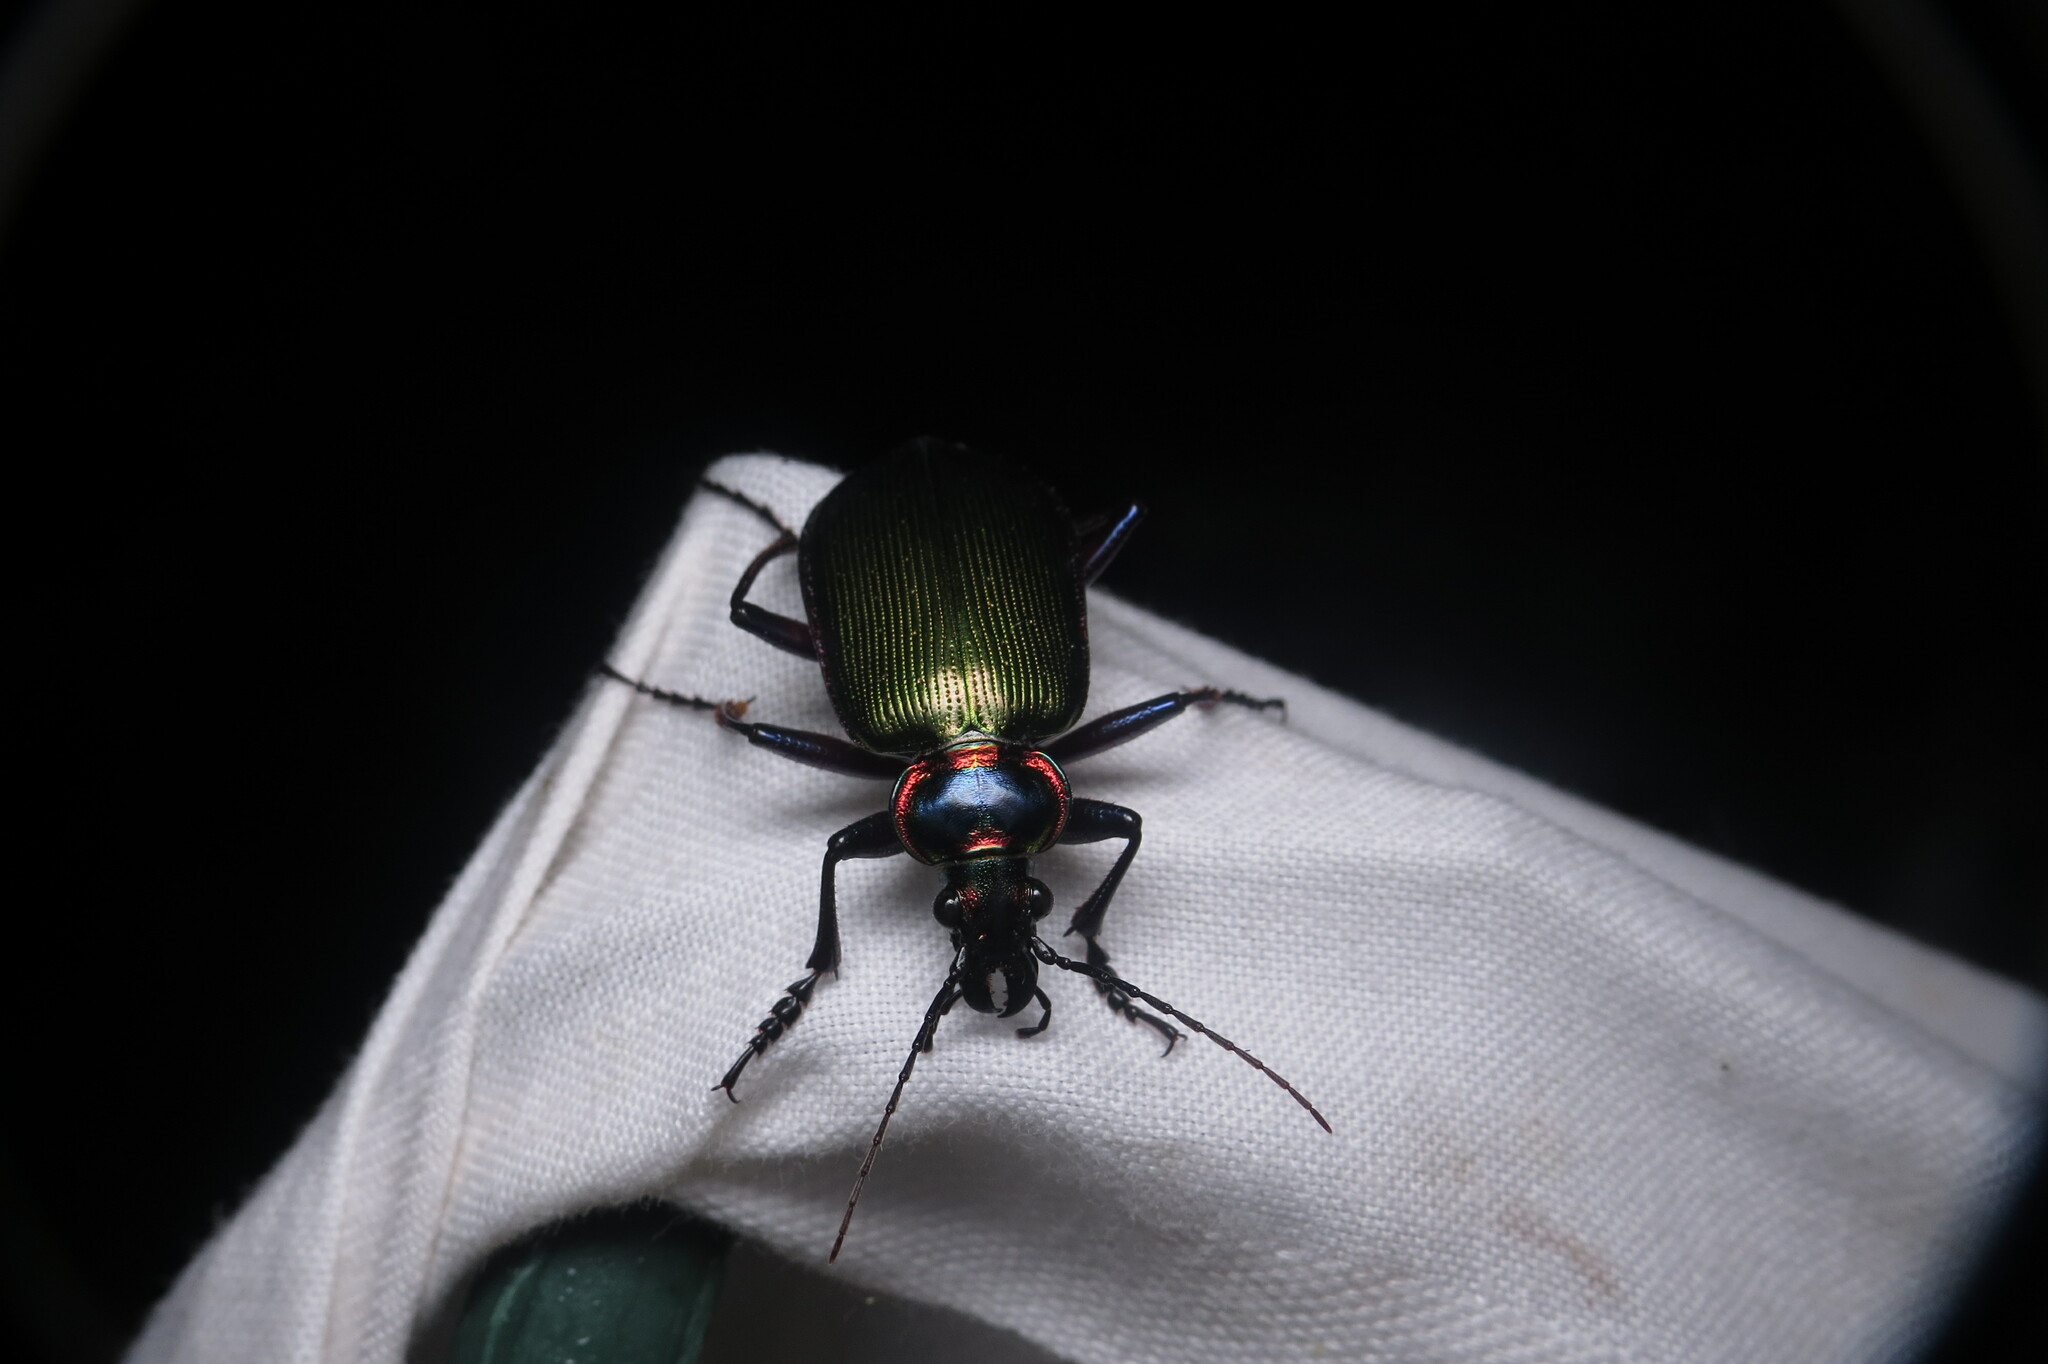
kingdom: Animalia
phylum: Arthropoda
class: Insecta
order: Coleoptera
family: Carabidae
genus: Calosoma
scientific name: Calosoma scrutator
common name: Fiery searcher beetle
